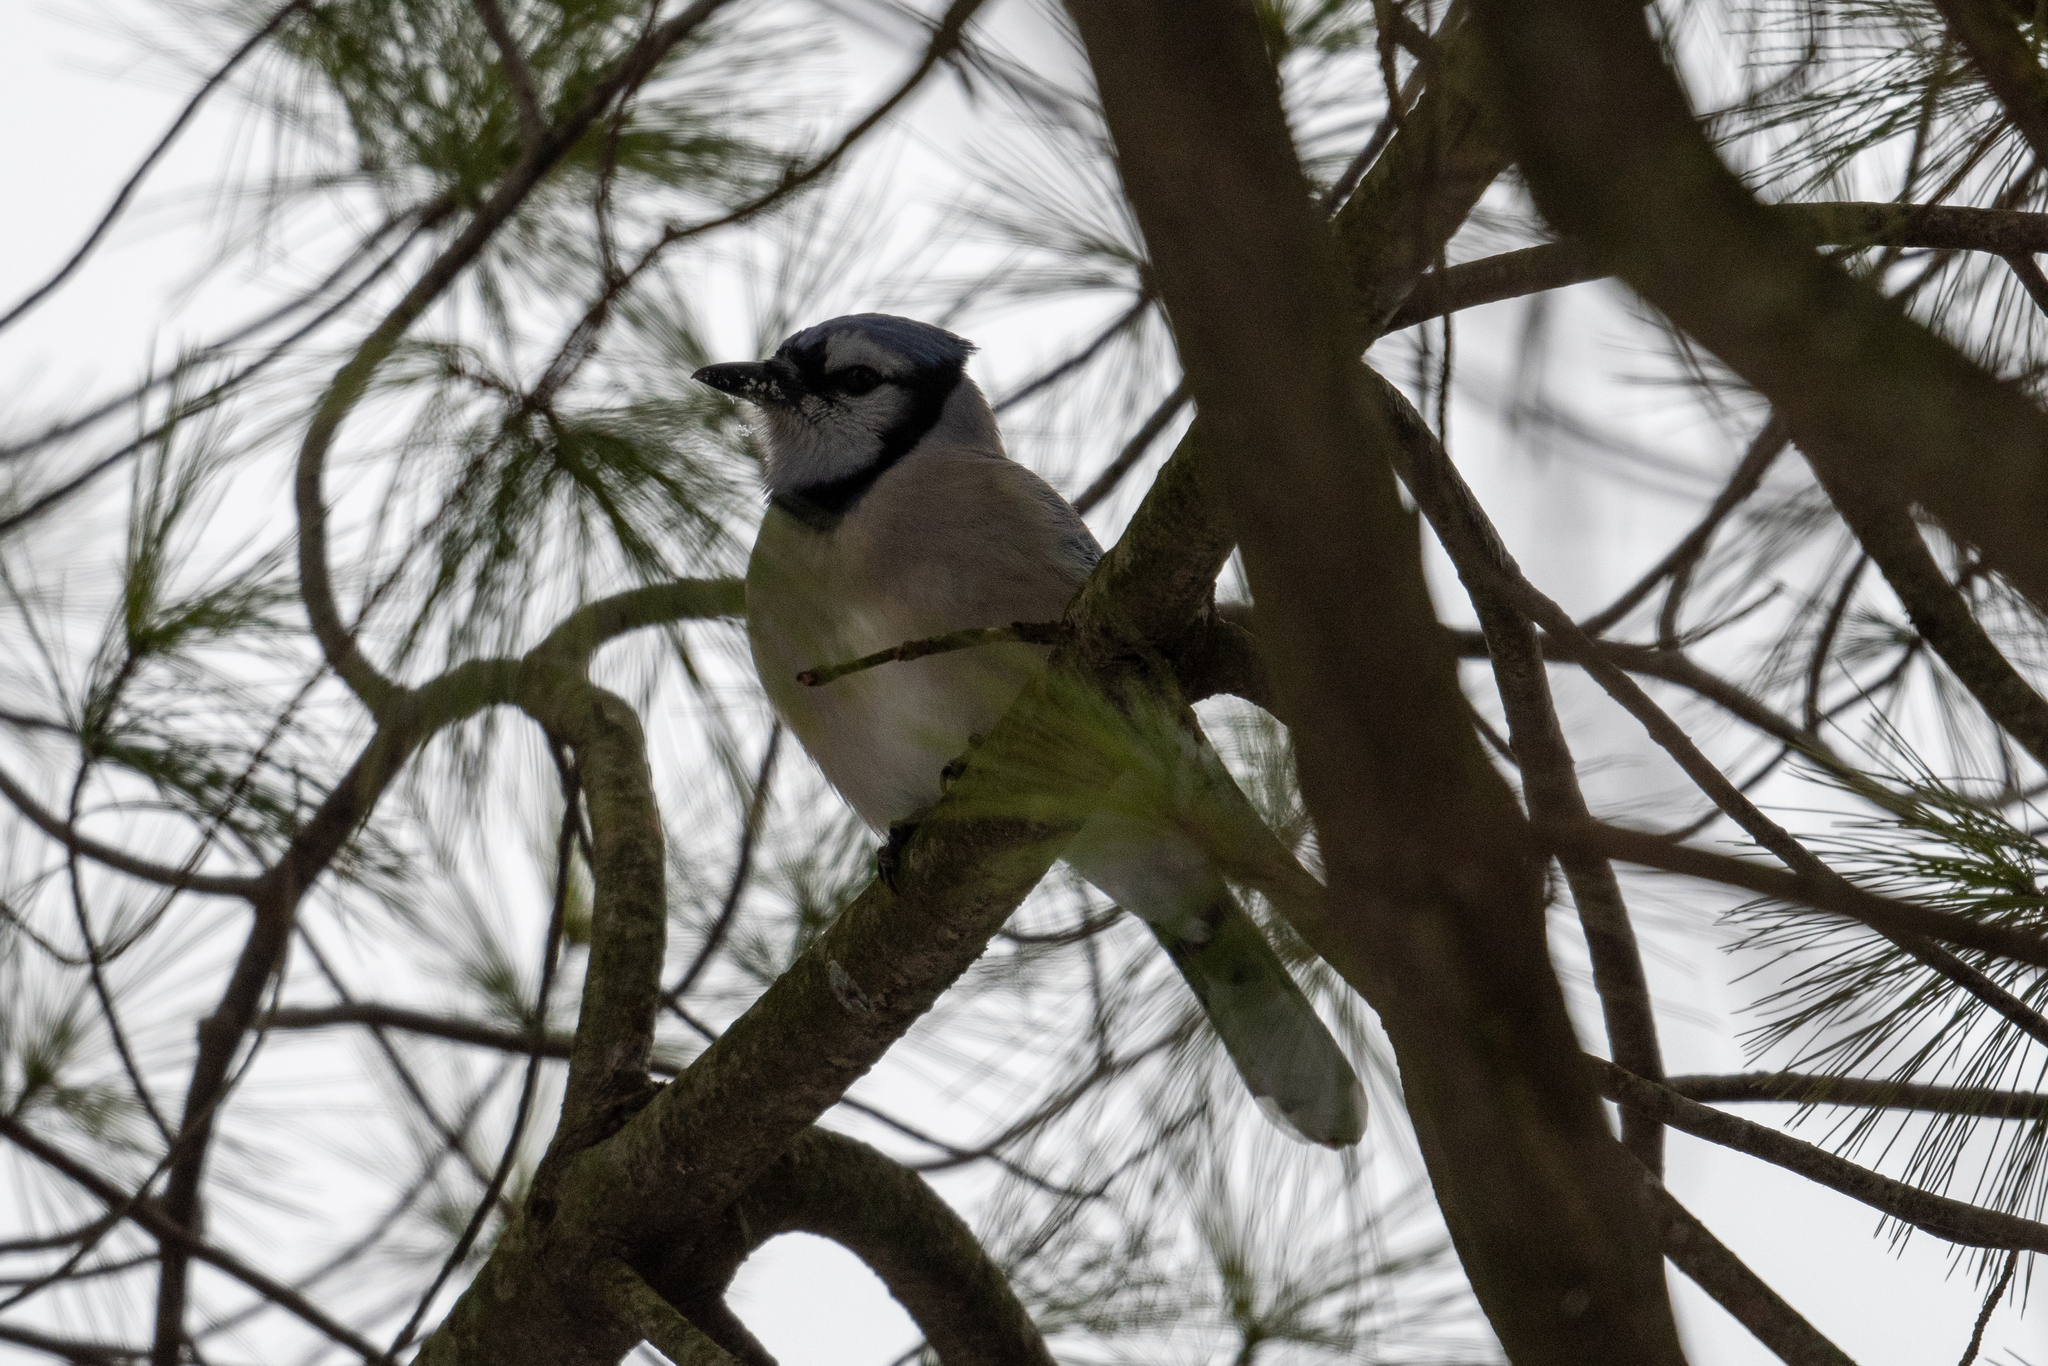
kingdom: Animalia
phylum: Chordata
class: Aves
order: Passeriformes
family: Corvidae
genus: Cyanocitta
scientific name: Cyanocitta cristata
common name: Blue jay
